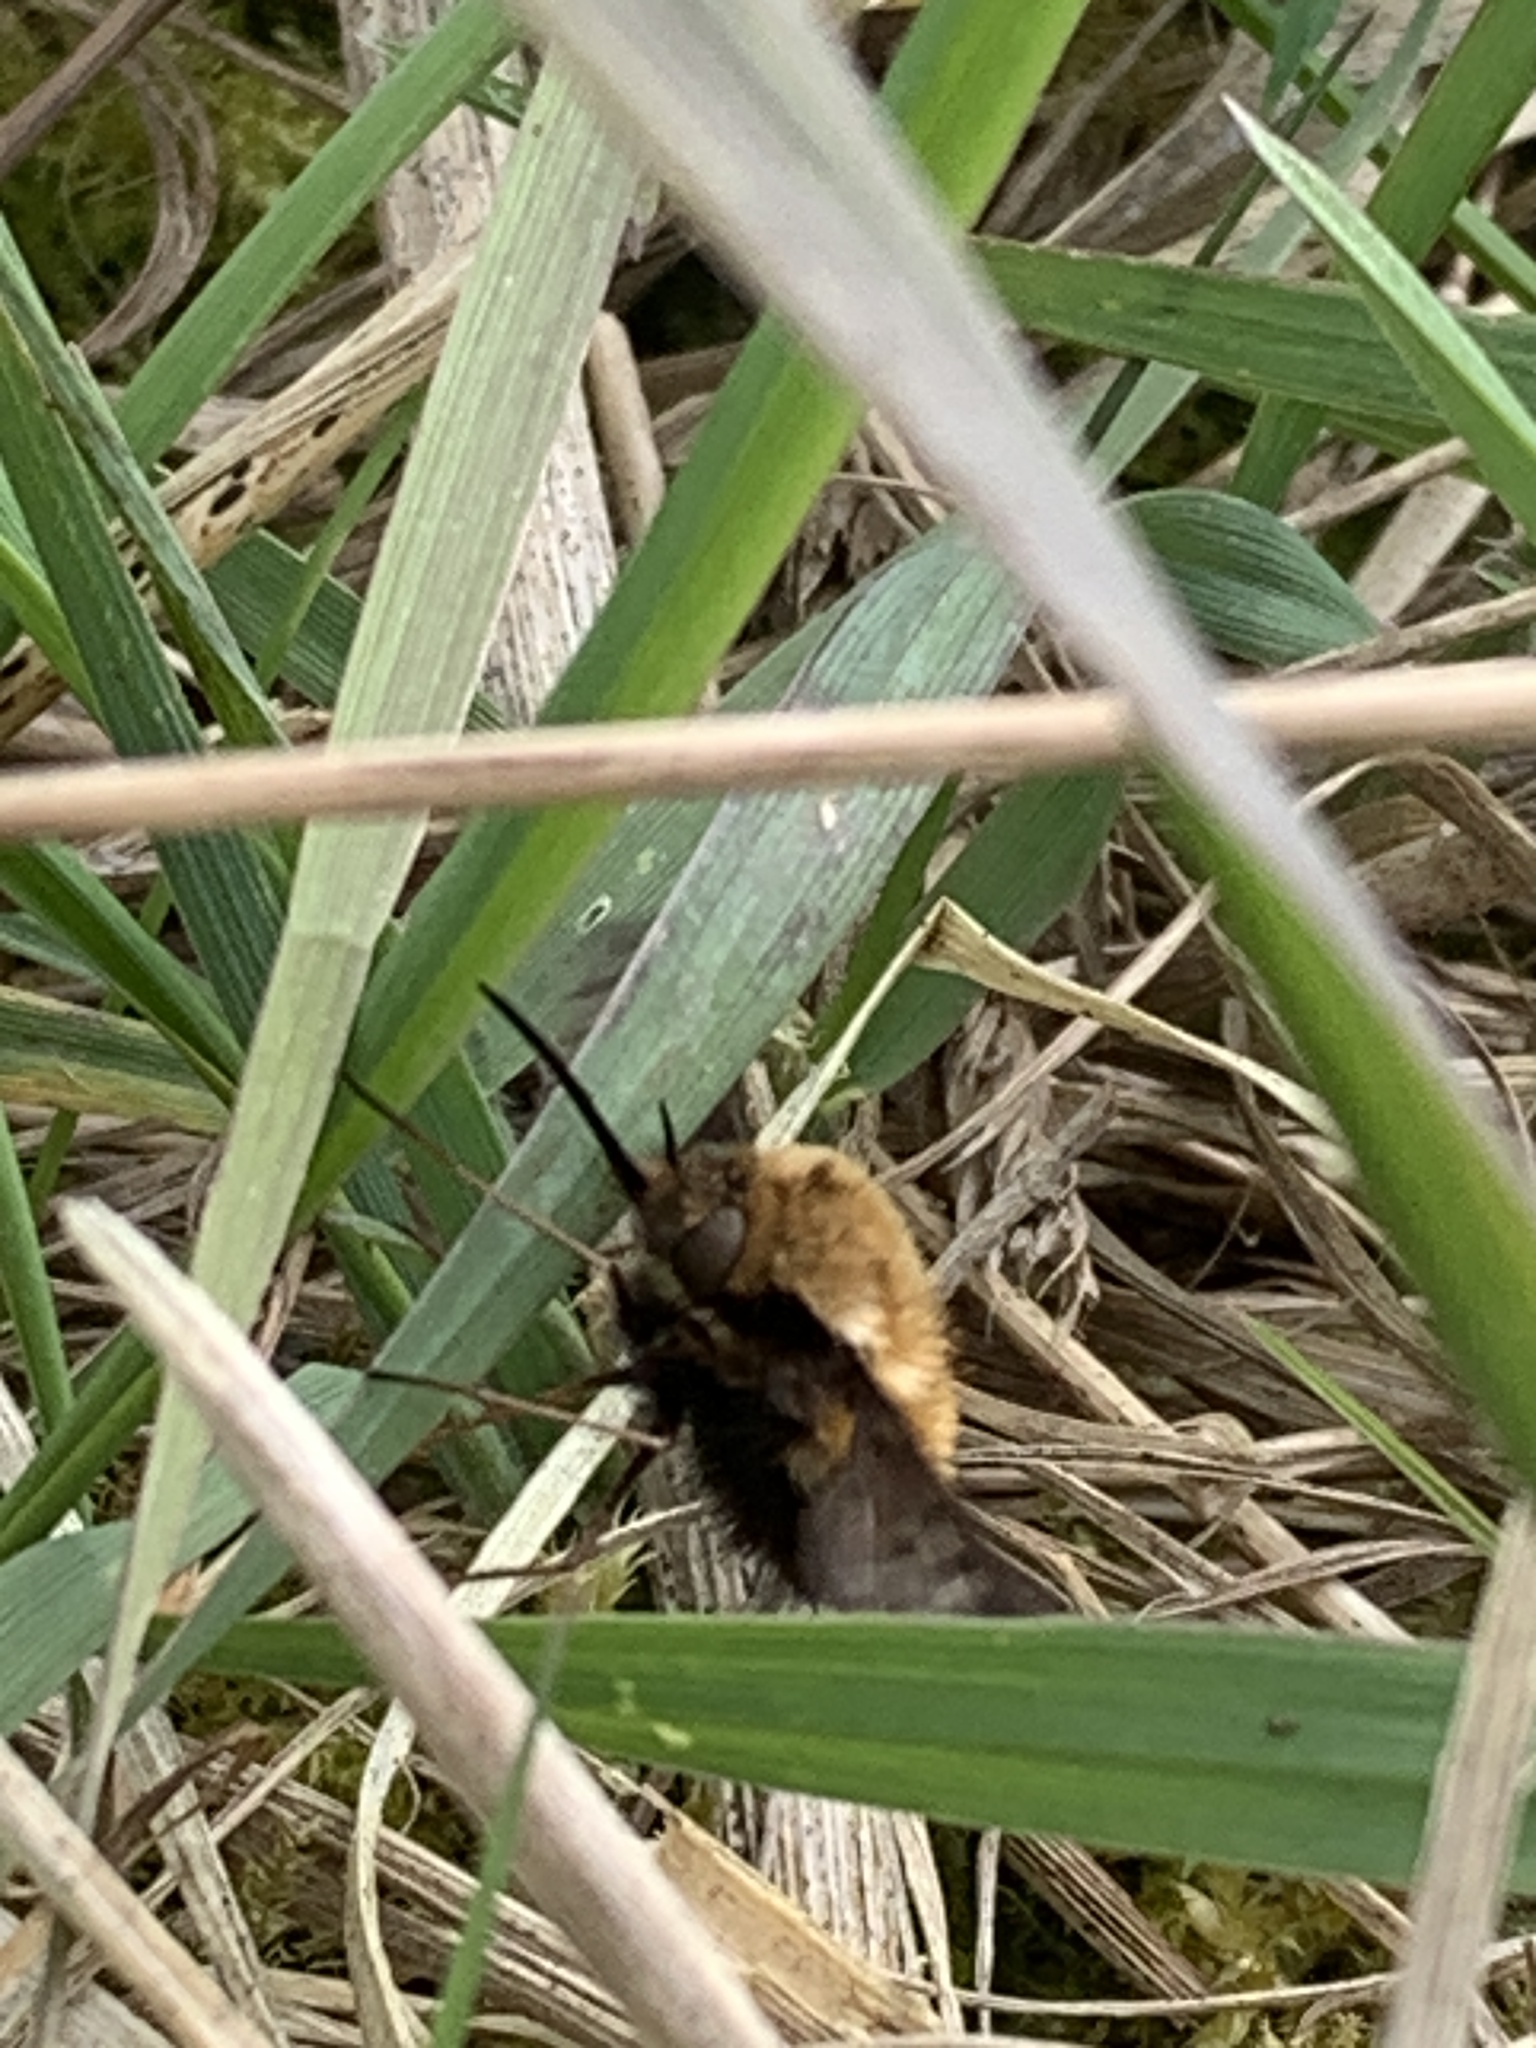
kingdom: Animalia
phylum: Arthropoda
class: Insecta
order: Diptera
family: Bombyliidae
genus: Bombylius
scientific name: Bombylius major
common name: Bee fly
